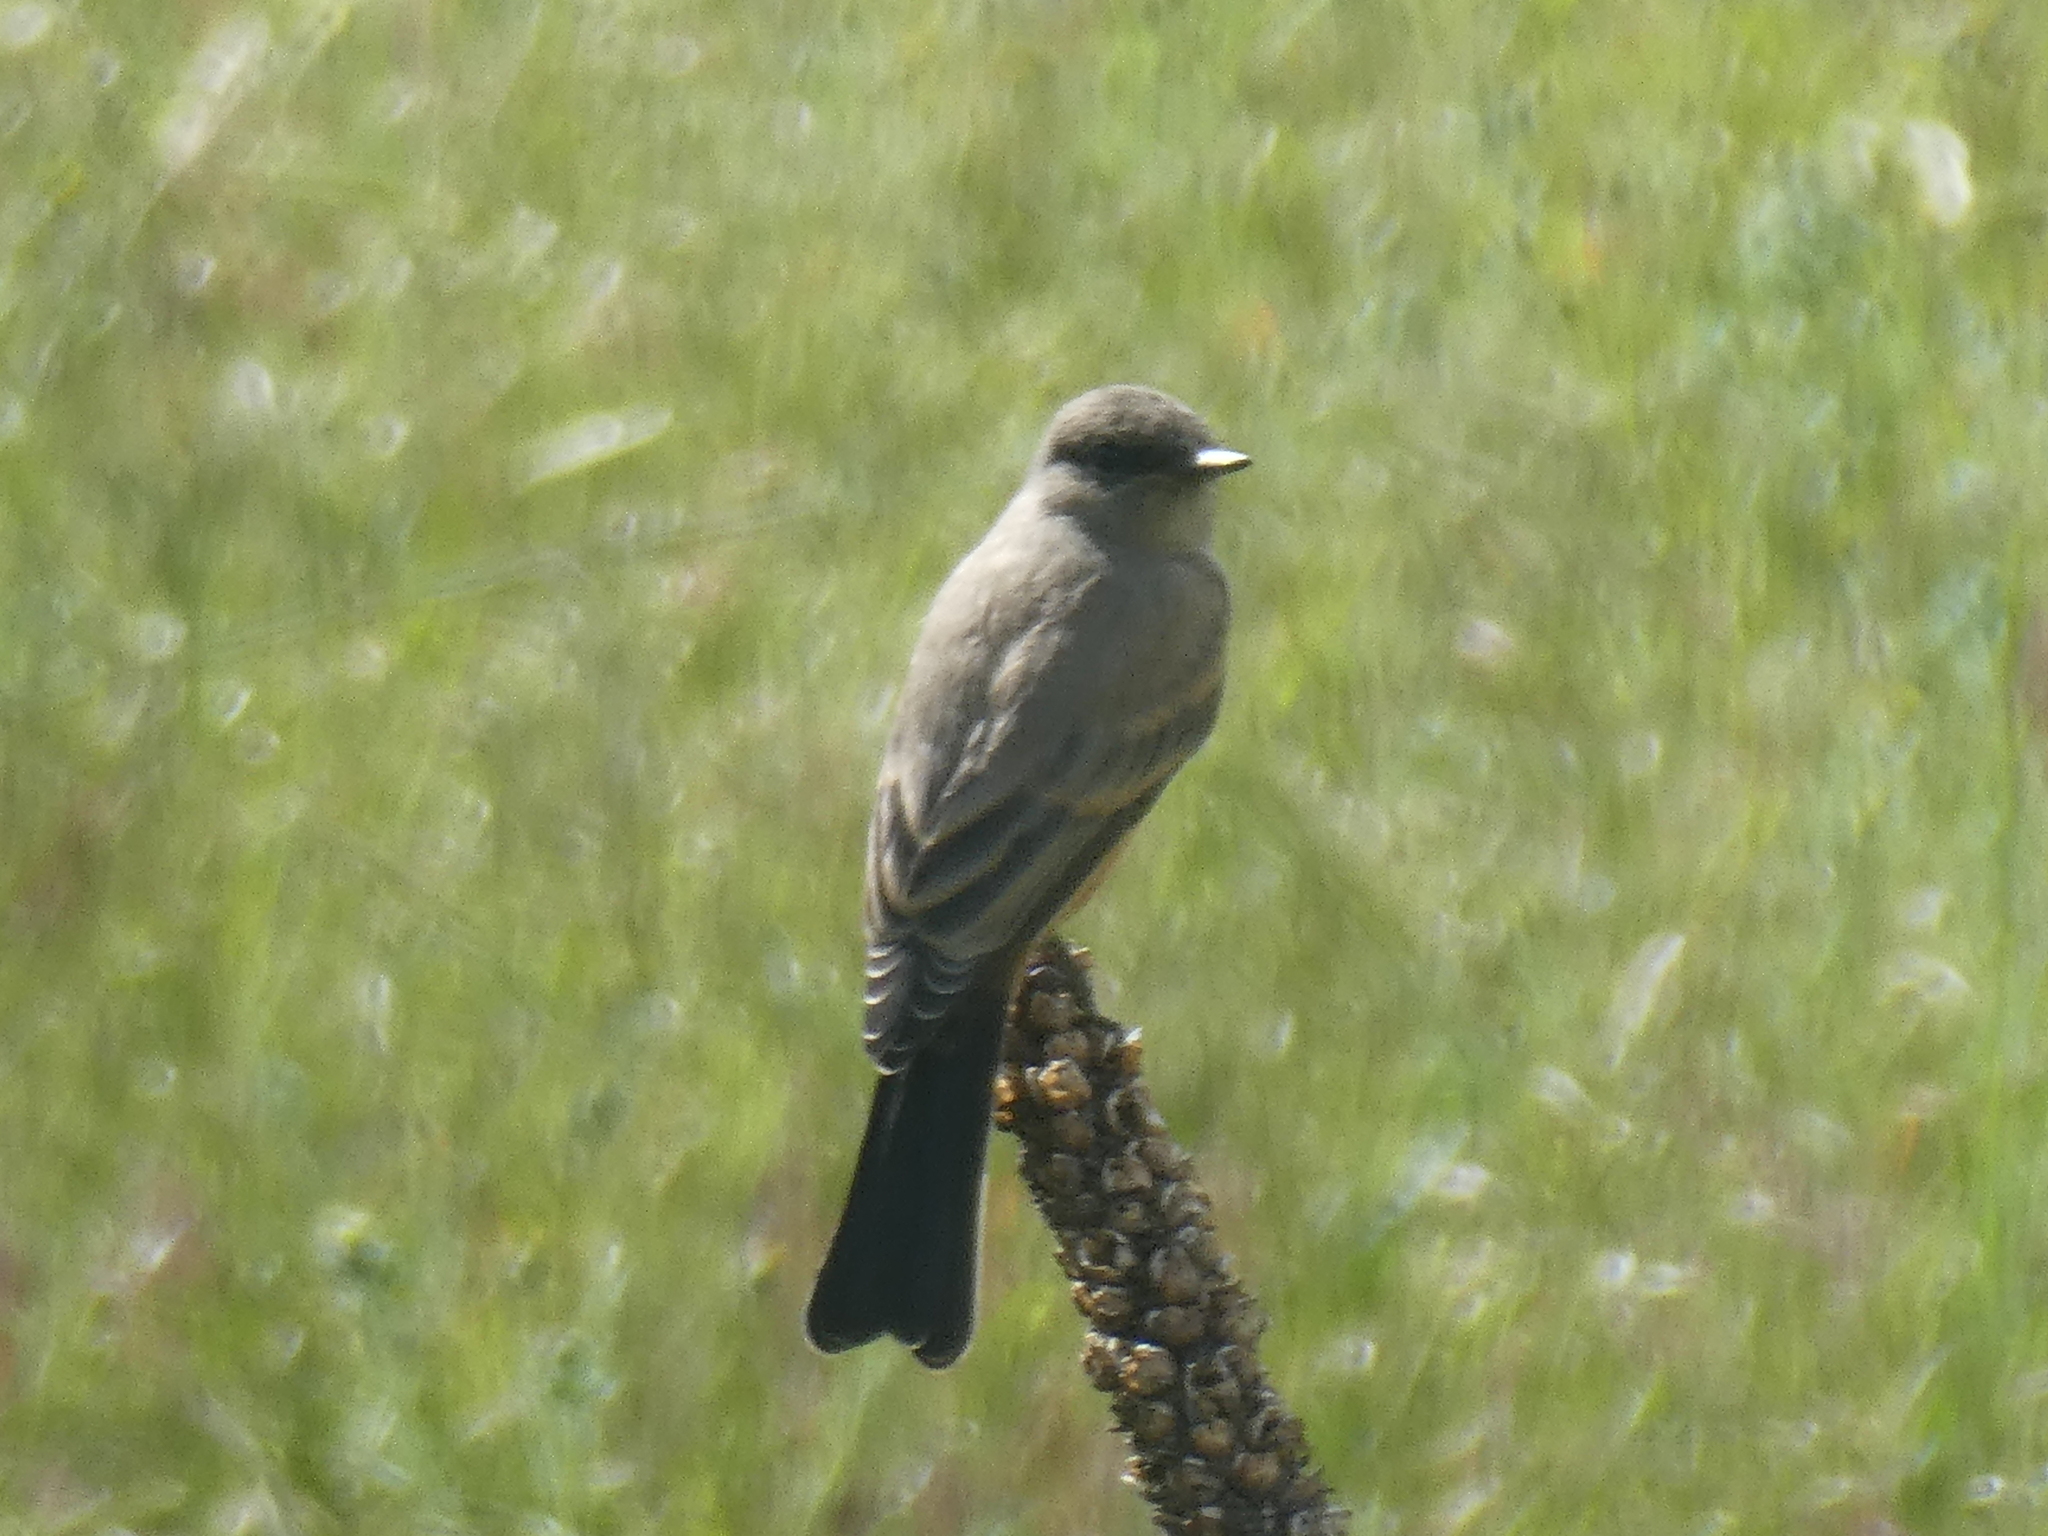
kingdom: Animalia
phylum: Chordata
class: Aves
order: Passeriformes
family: Tyrannidae
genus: Sayornis
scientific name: Sayornis saya
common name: Say's phoebe
